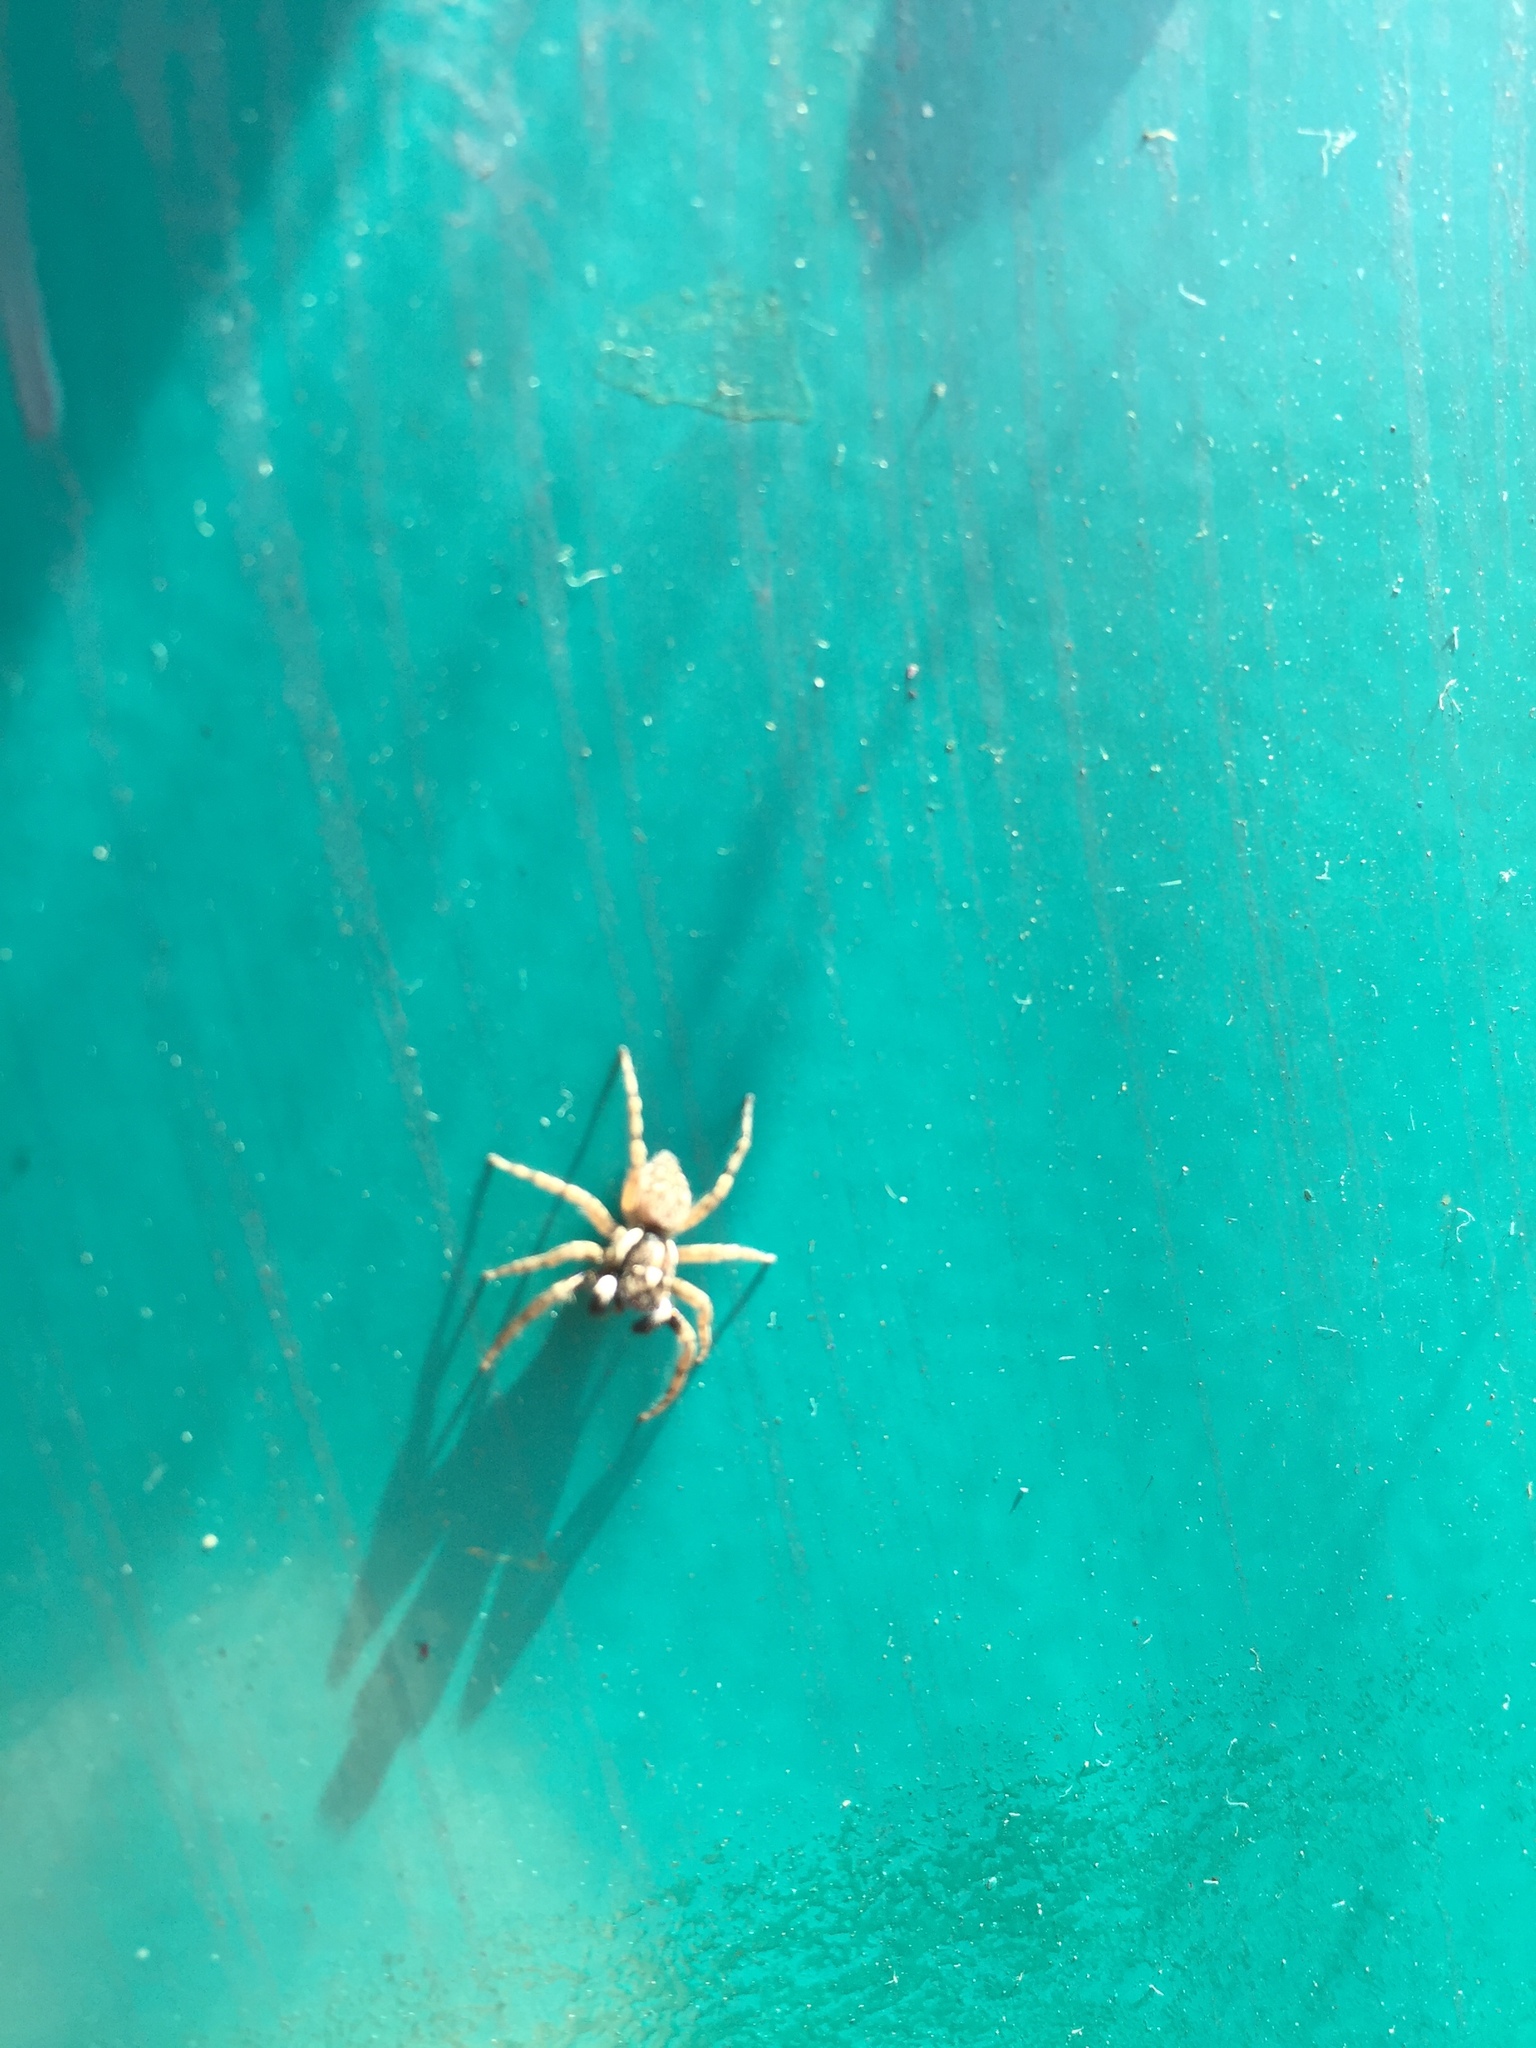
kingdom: Animalia
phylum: Arthropoda
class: Arachnida
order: Araneae
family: Salticidae
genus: Menemerus
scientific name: Menemerus semilimbatus
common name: Jumping spider
